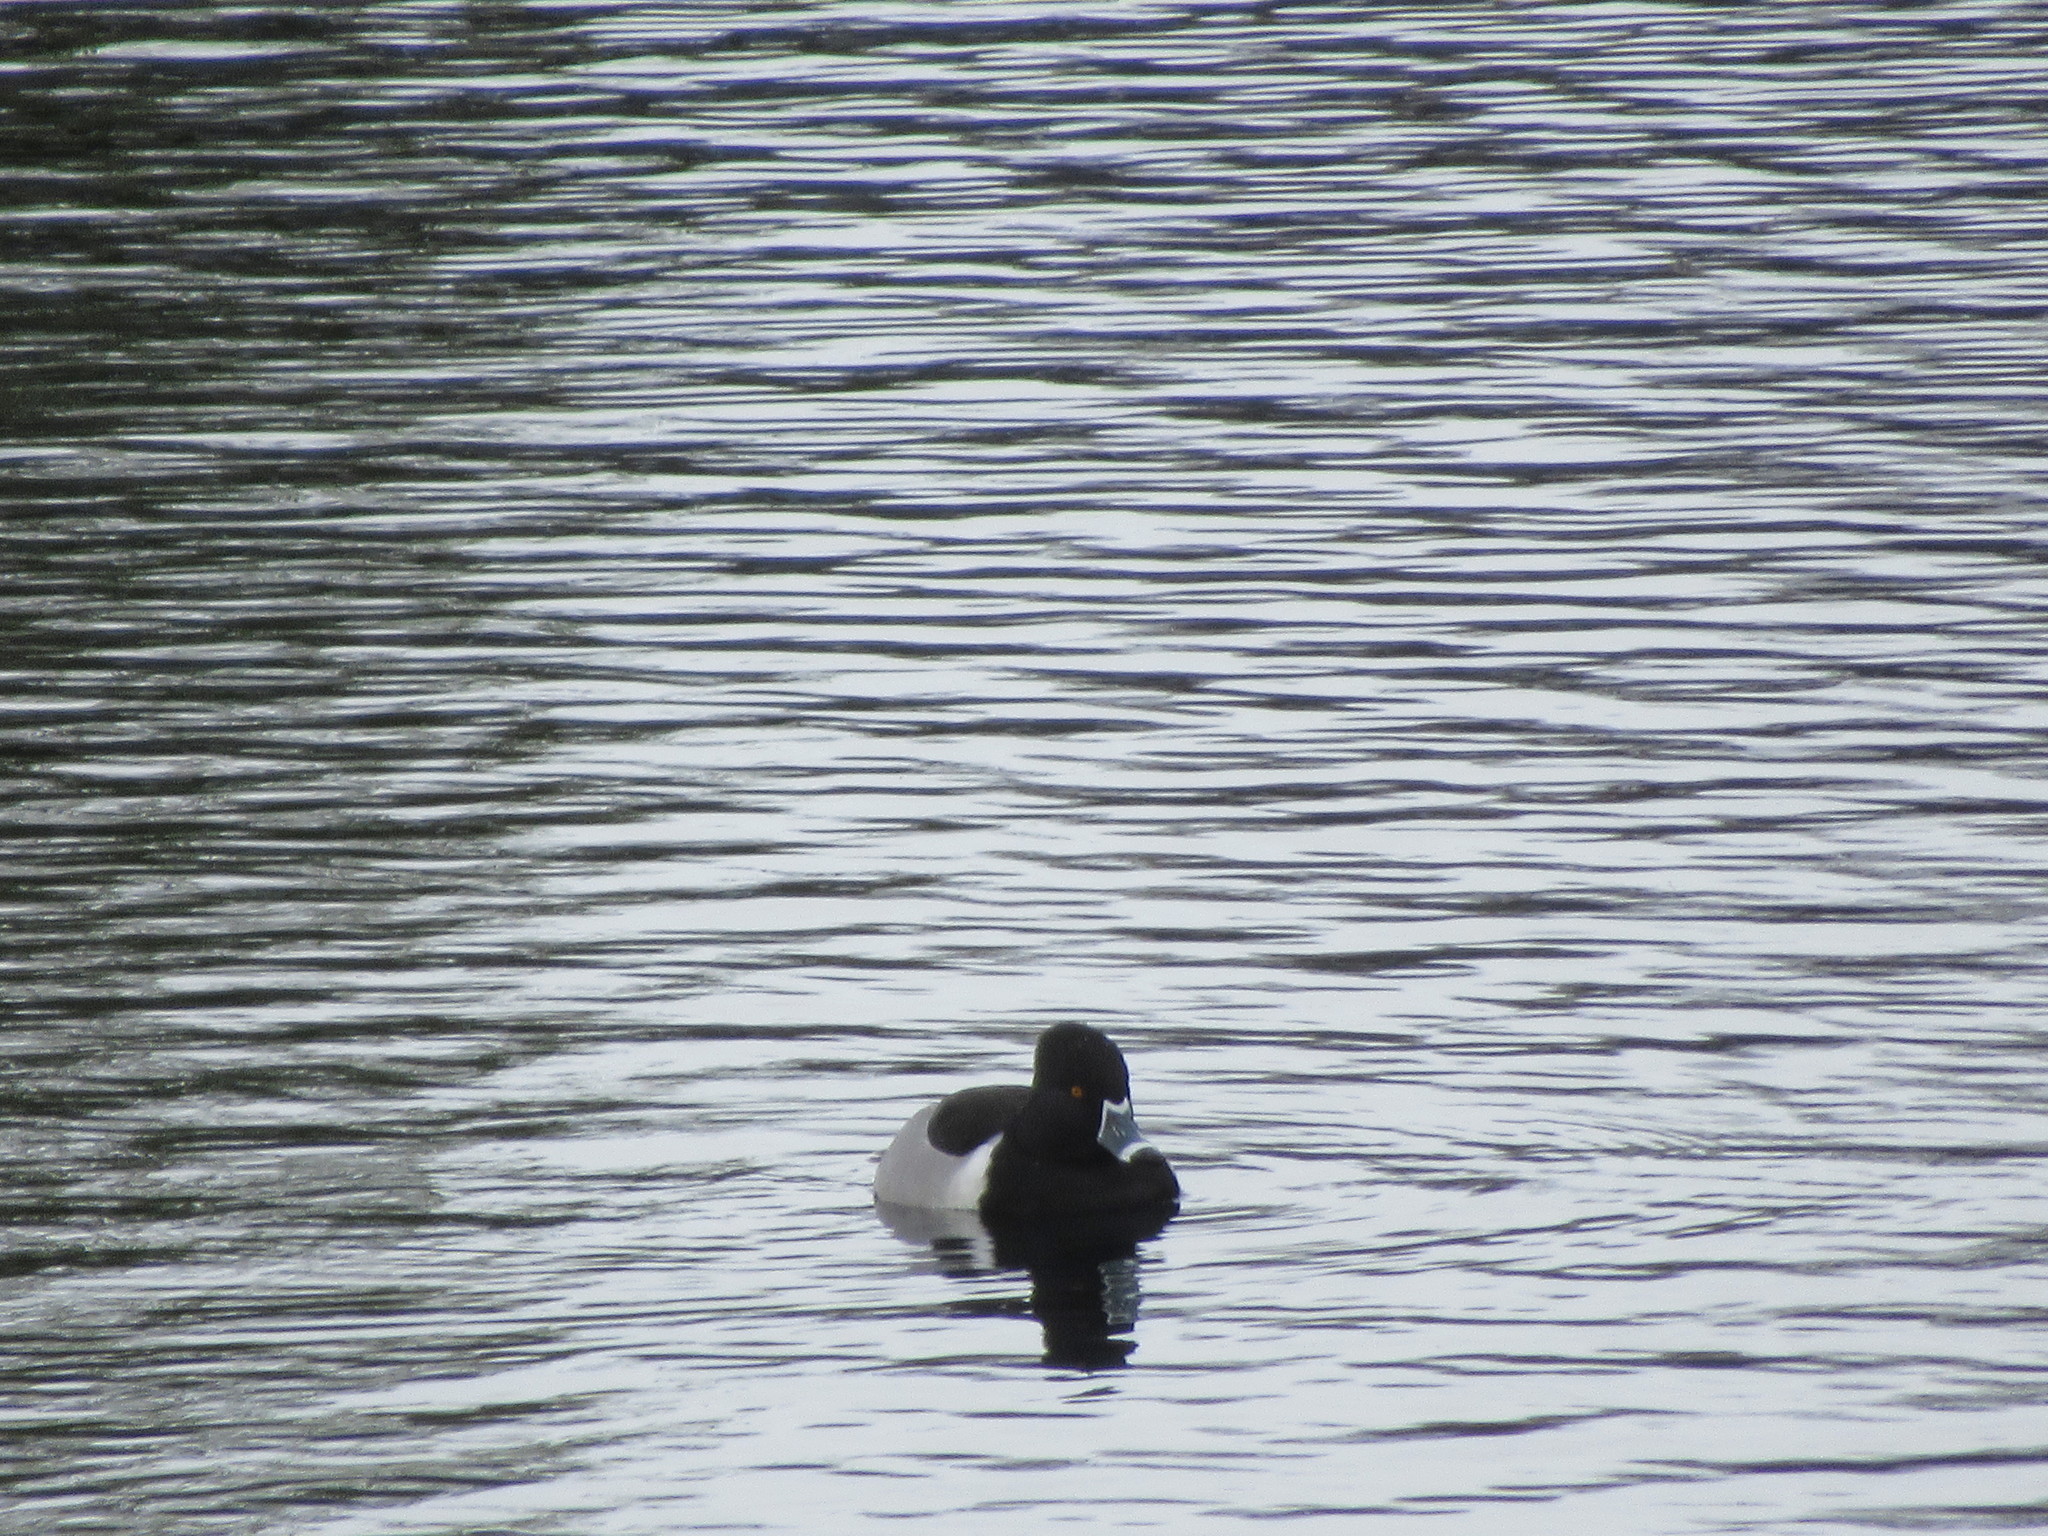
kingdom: Animalia
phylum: Chordata
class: Aves
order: Anseriformes
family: Anatidae
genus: Aythya
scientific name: Aythya collaris
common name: Ring-necked duck
